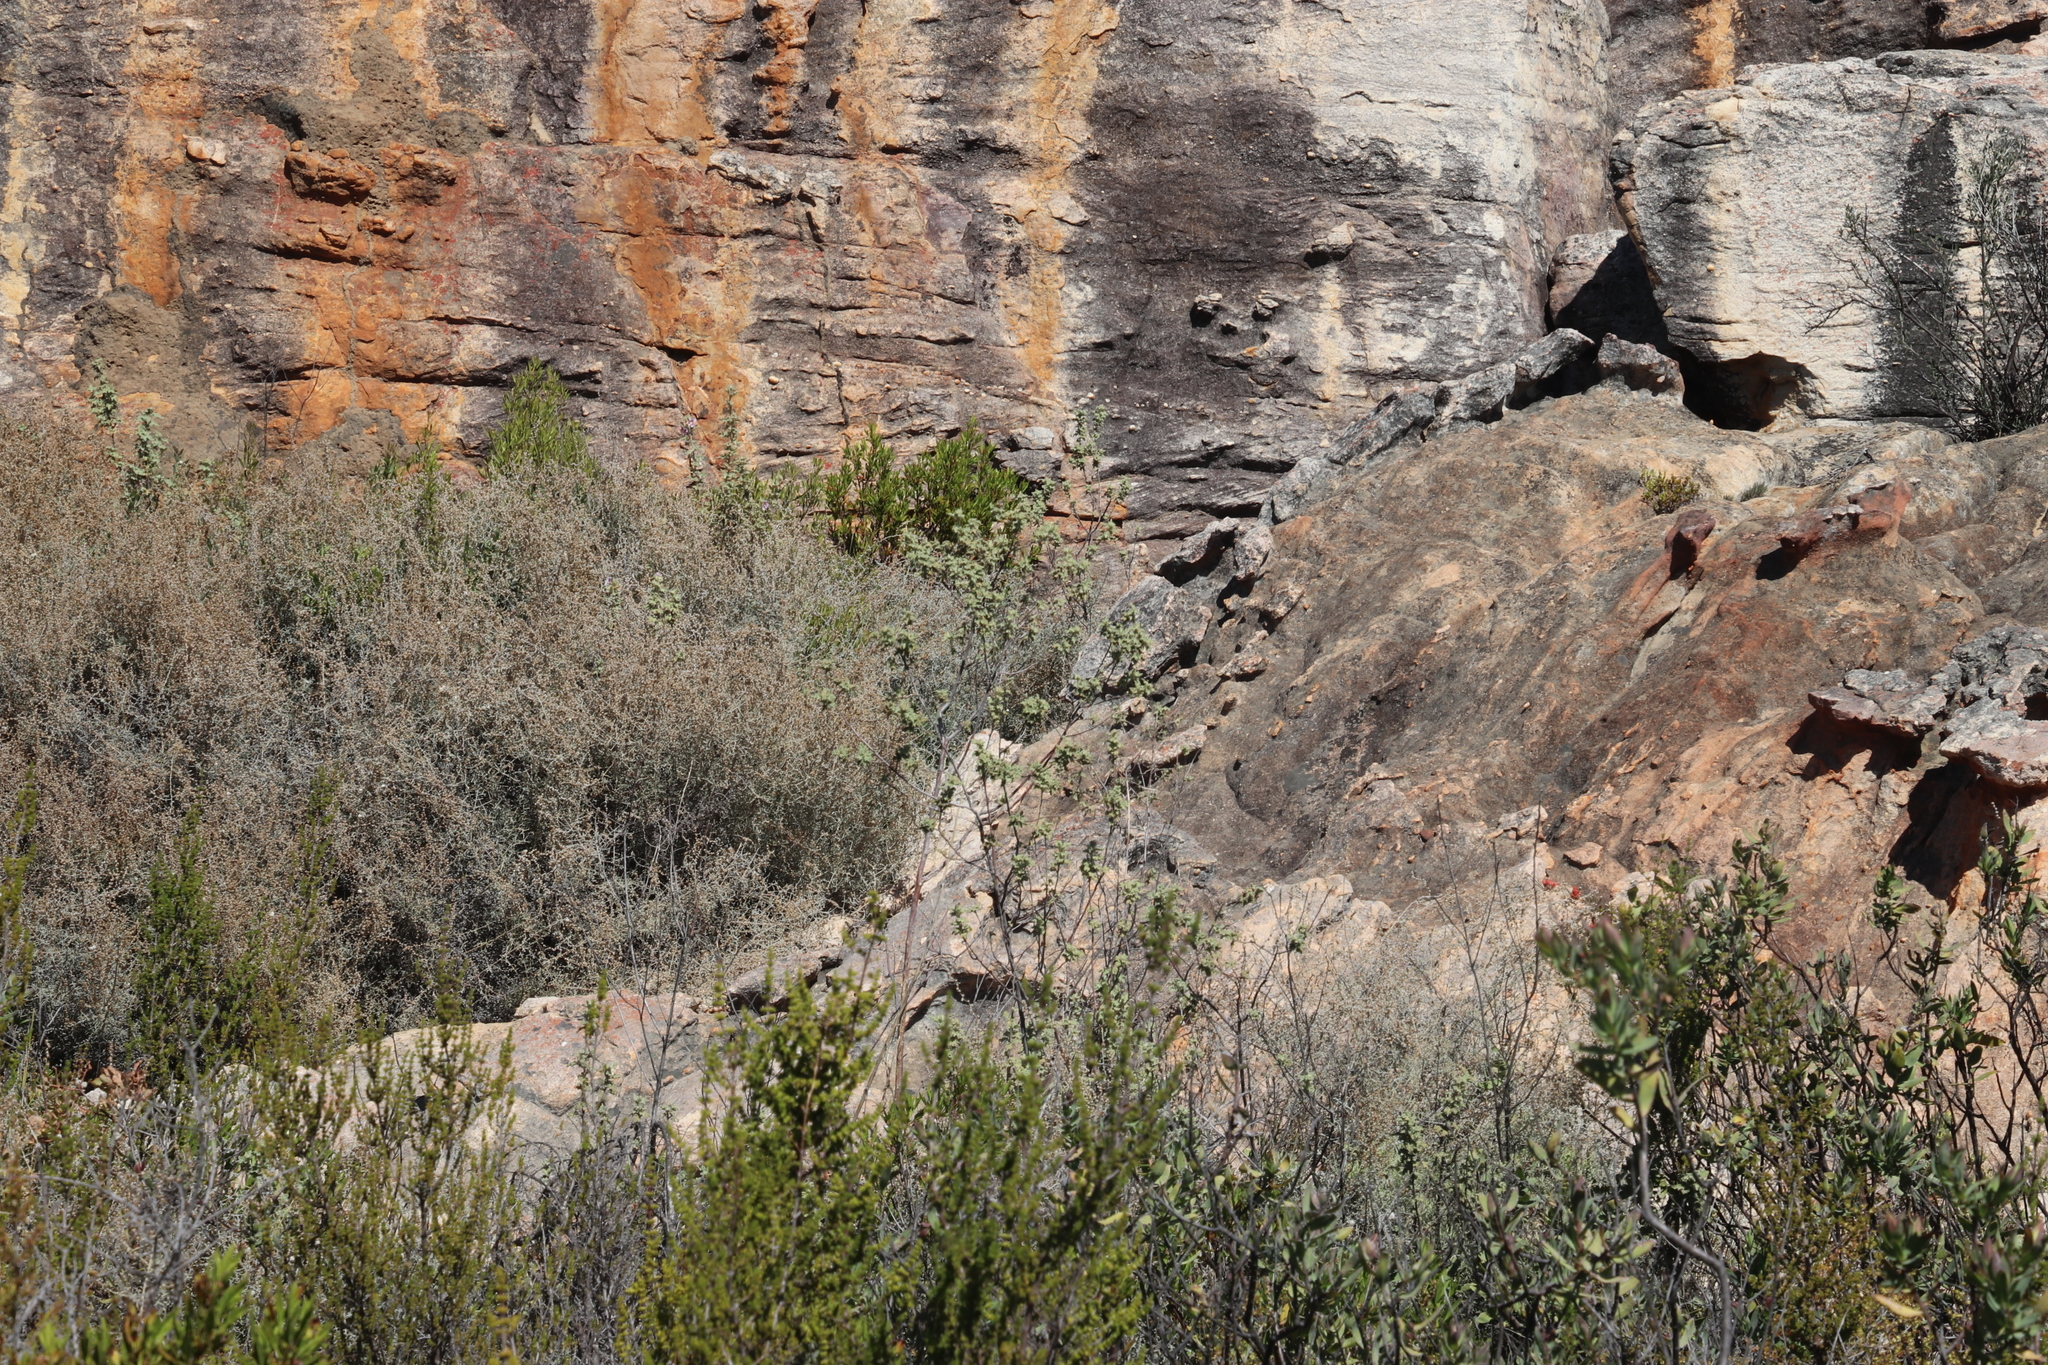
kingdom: Plantae
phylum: Tracheophyta
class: Magnoliopsida
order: Asterales
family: Asteraceae
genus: Seriphium
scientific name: Seriphium plumosum
